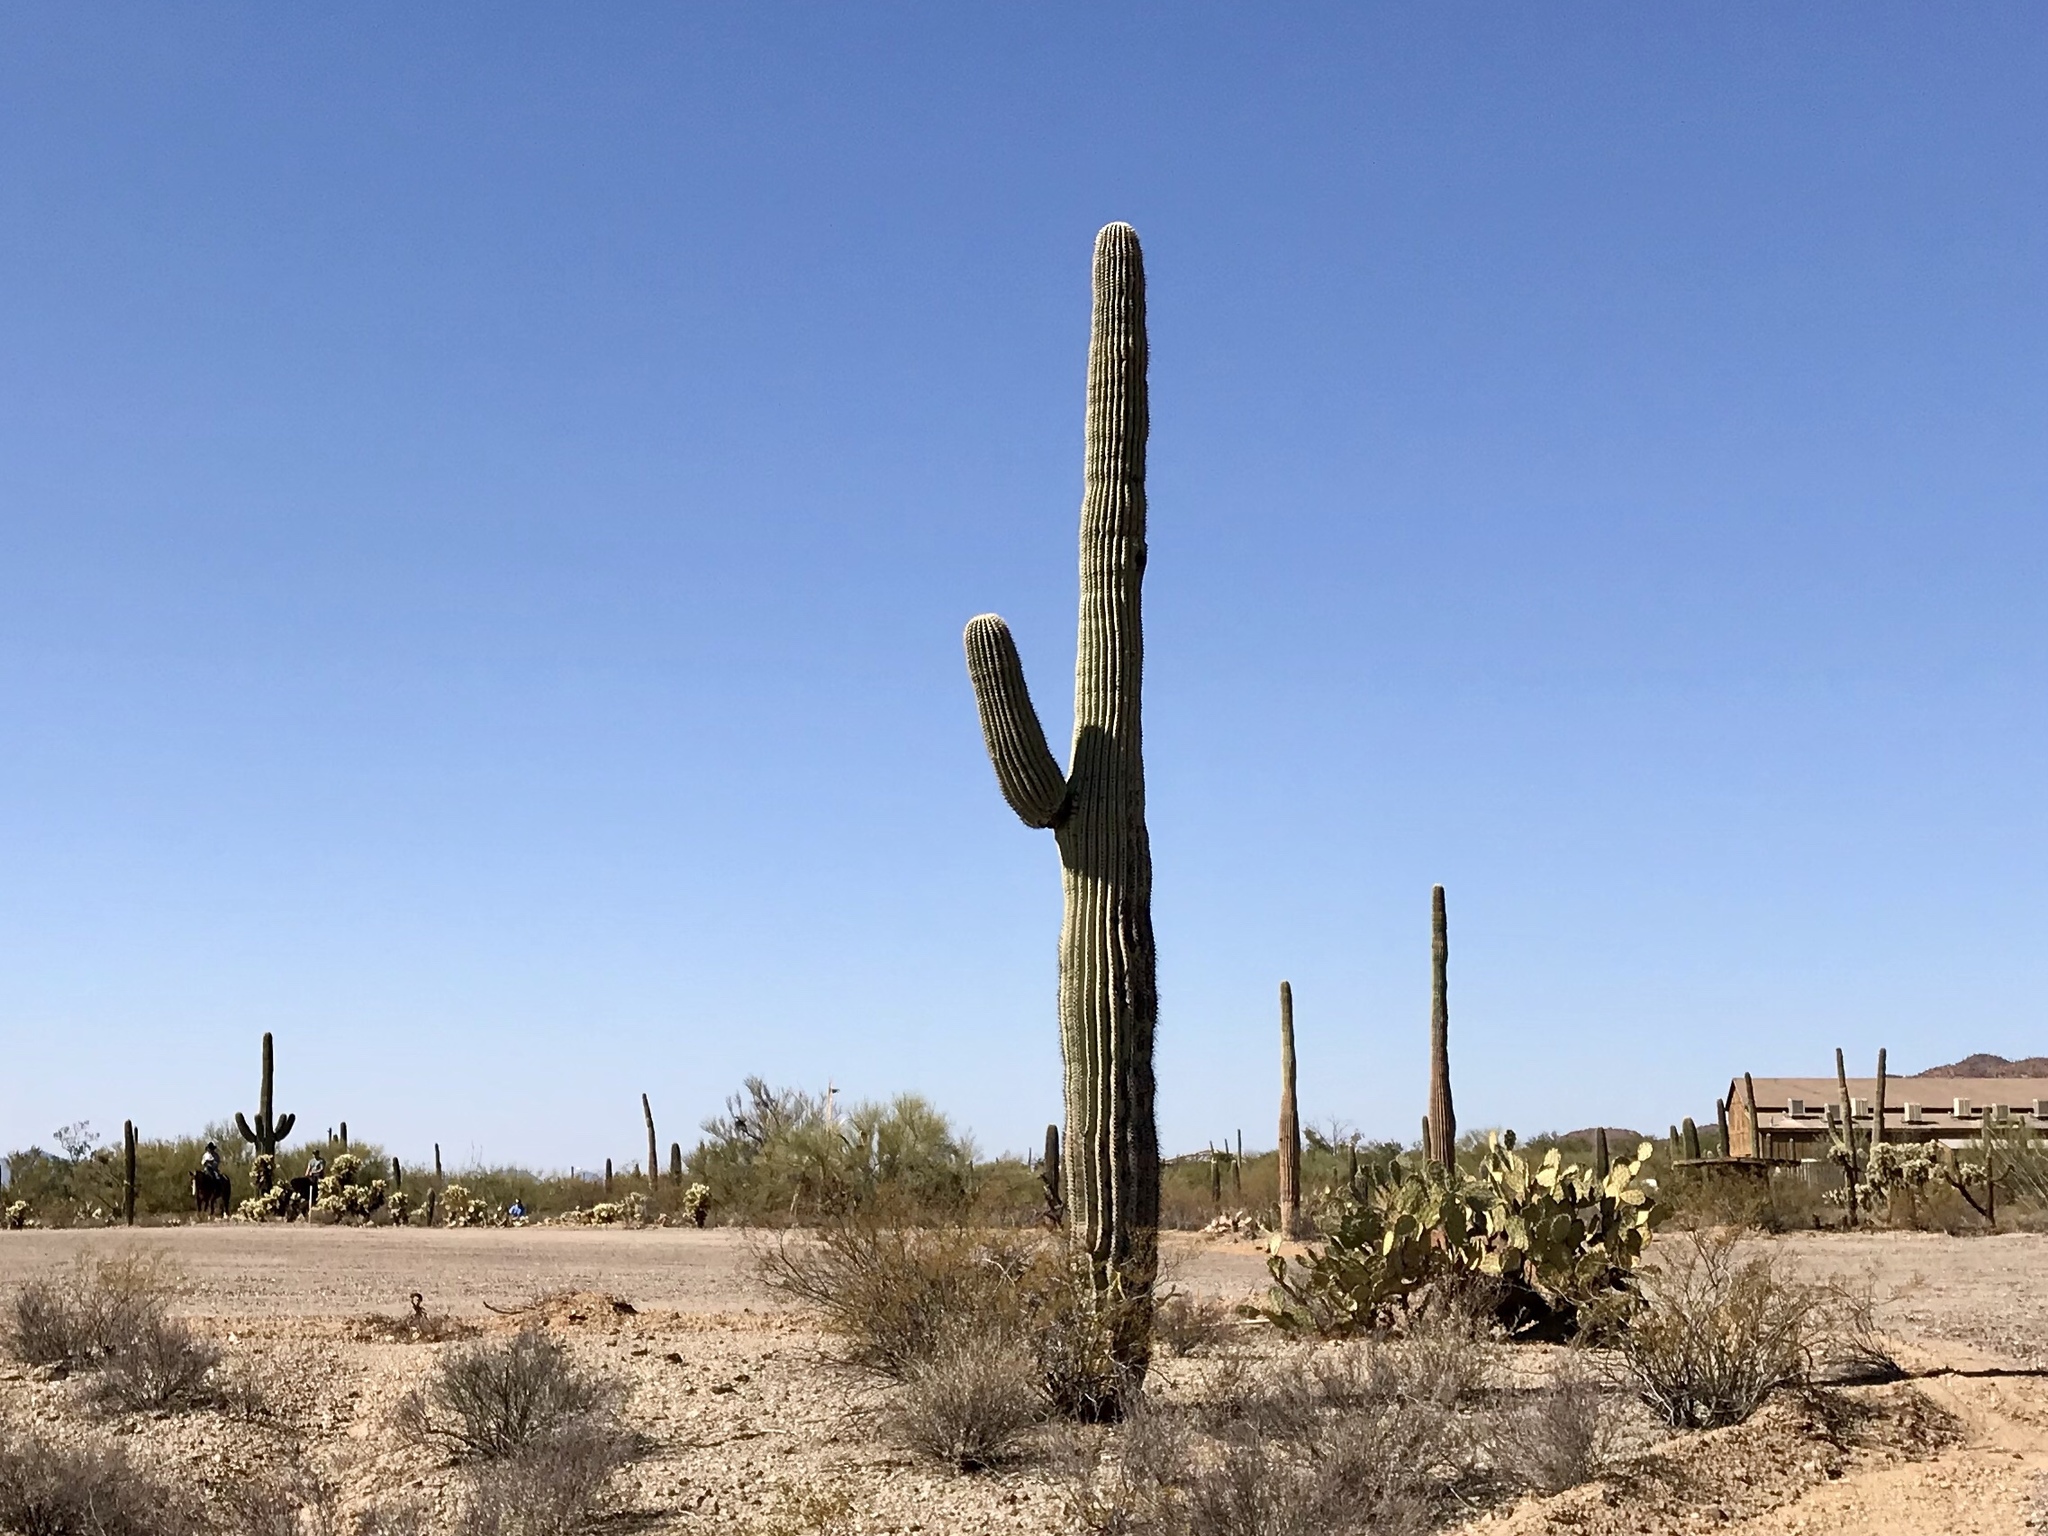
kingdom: Plantae
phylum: Tracheophyta
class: Magnoliopsida
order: Caryophyllales
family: Cactaceae
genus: Carnegiea
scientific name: Carnegiea gigantea
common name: Saguaro
